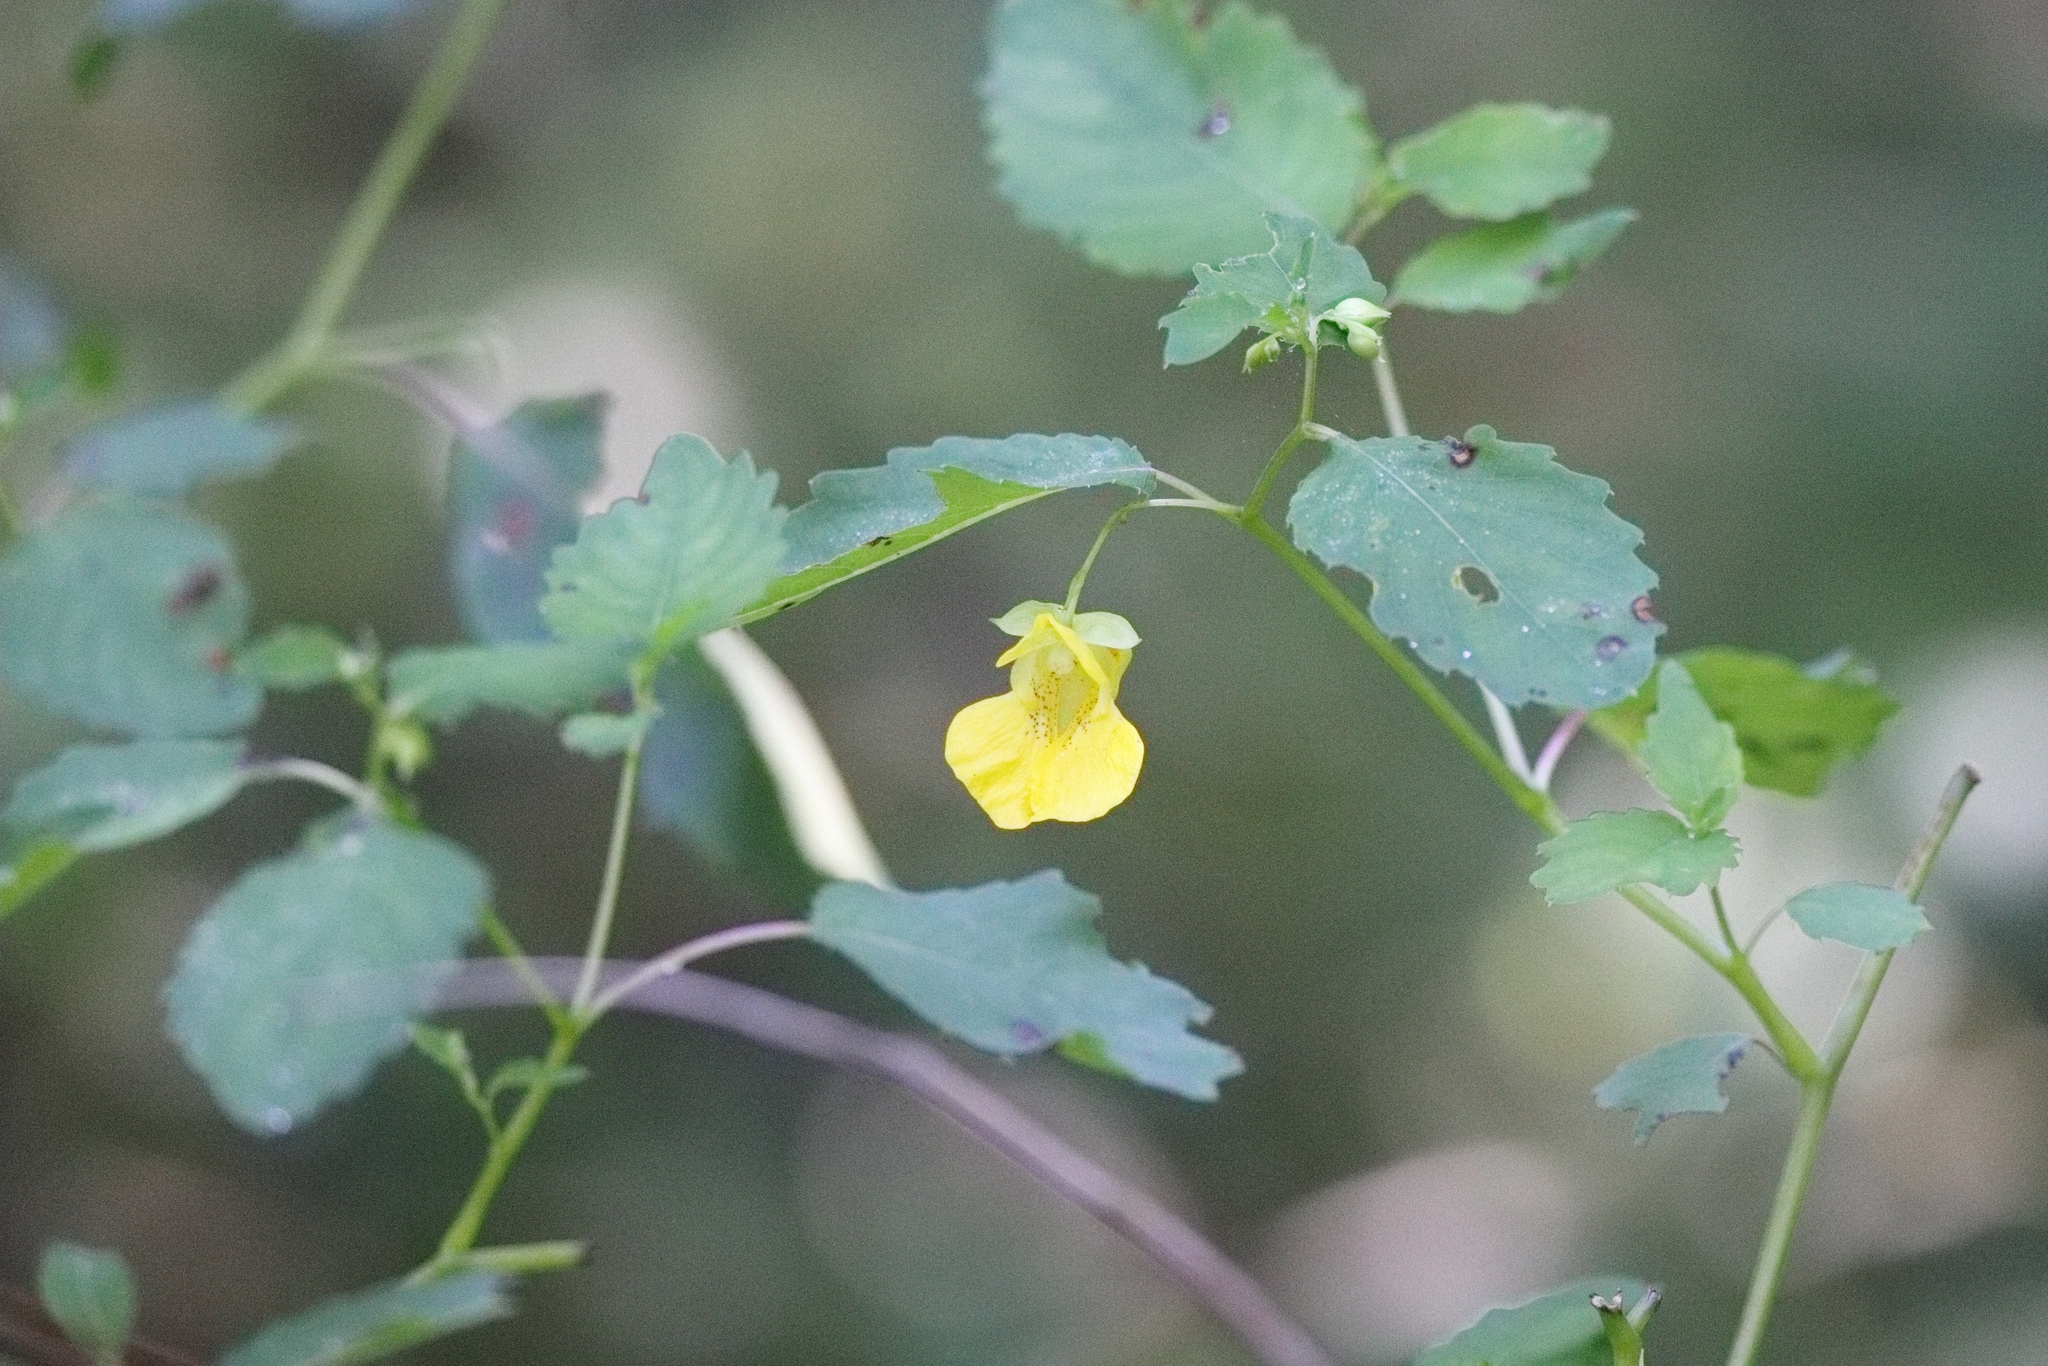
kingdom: Plantae
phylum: Tracheophyta
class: Magnoliopsida
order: Ericales
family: Balsaminaceae
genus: Impatiens
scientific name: Impatiens pallida
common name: Pale snapweed
